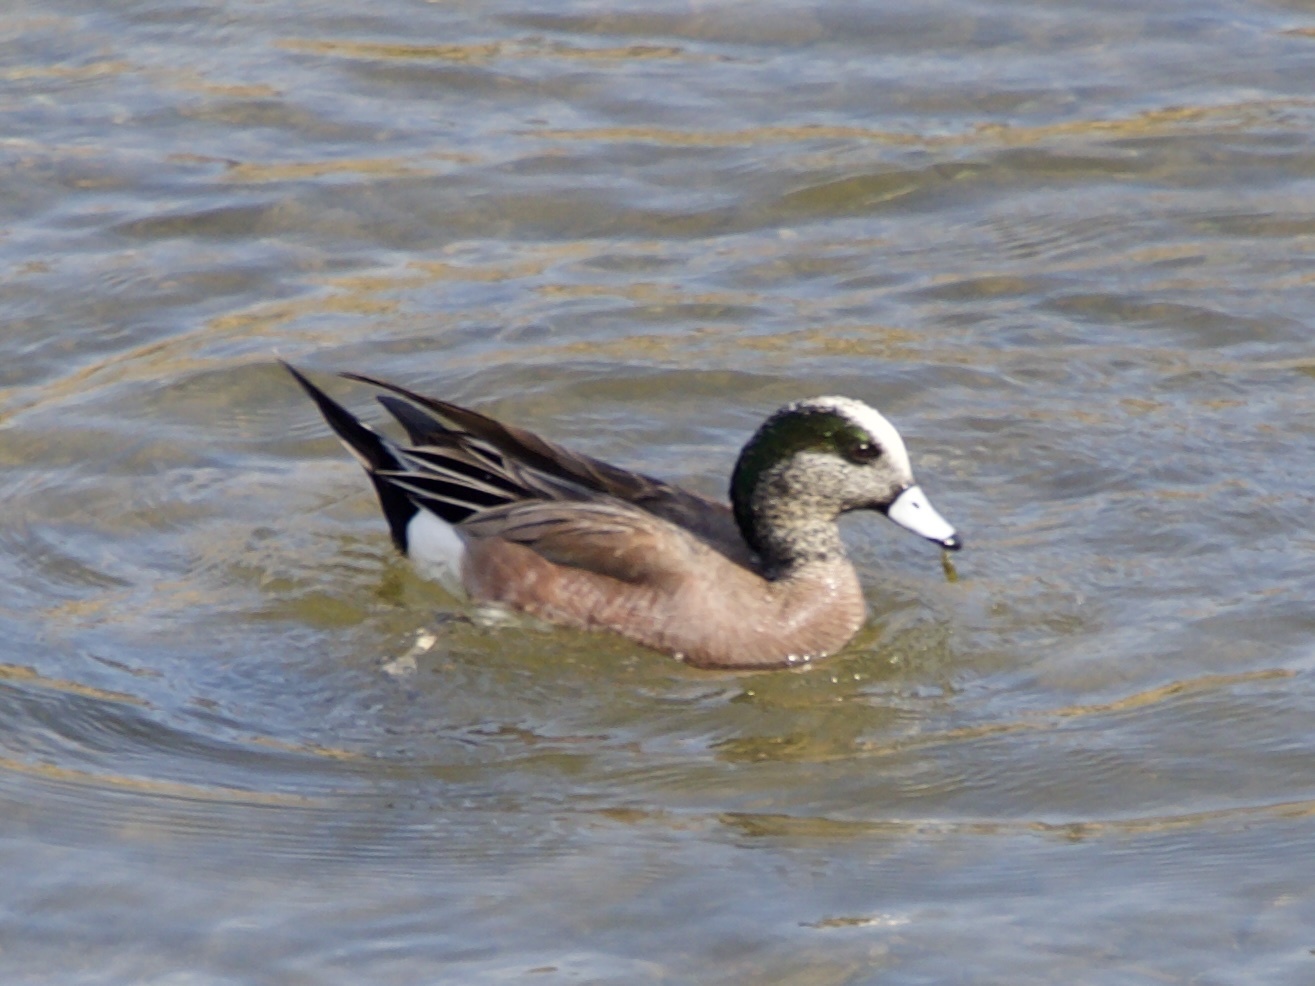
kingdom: Animalia
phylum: Chordata
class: Aves
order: Anseriformes
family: Anatidae
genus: Mareca
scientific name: Mareca americana
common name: American wigeon
